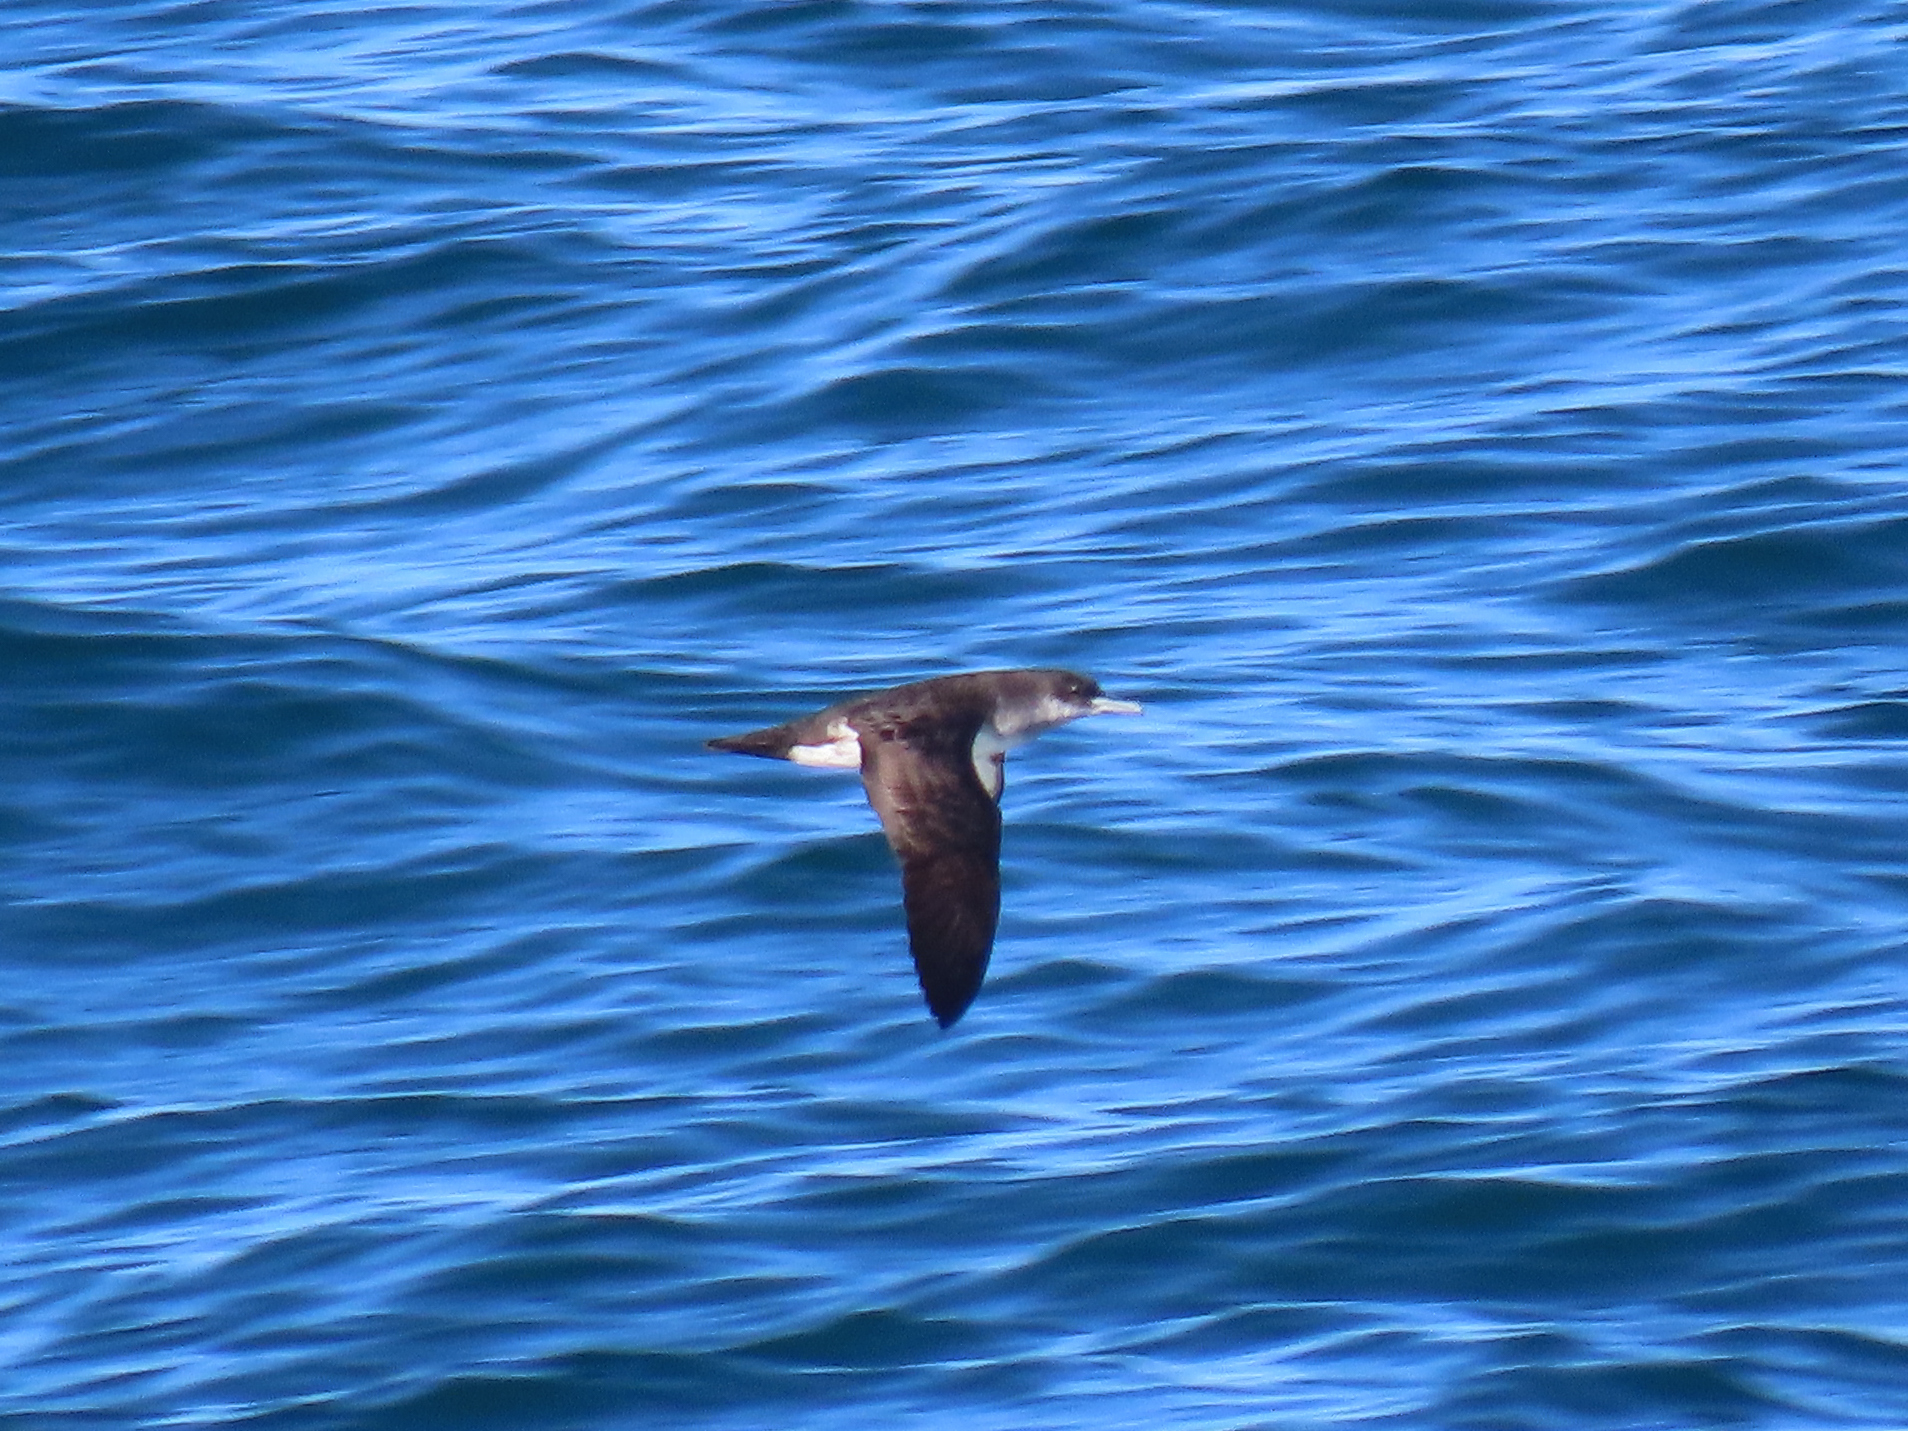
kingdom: Animalia
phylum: Chordata
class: Aves
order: Procellariiformes
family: Procellariidae
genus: Puffinus
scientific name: Puffinus opisthomelas
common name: Black-vented shearwater
